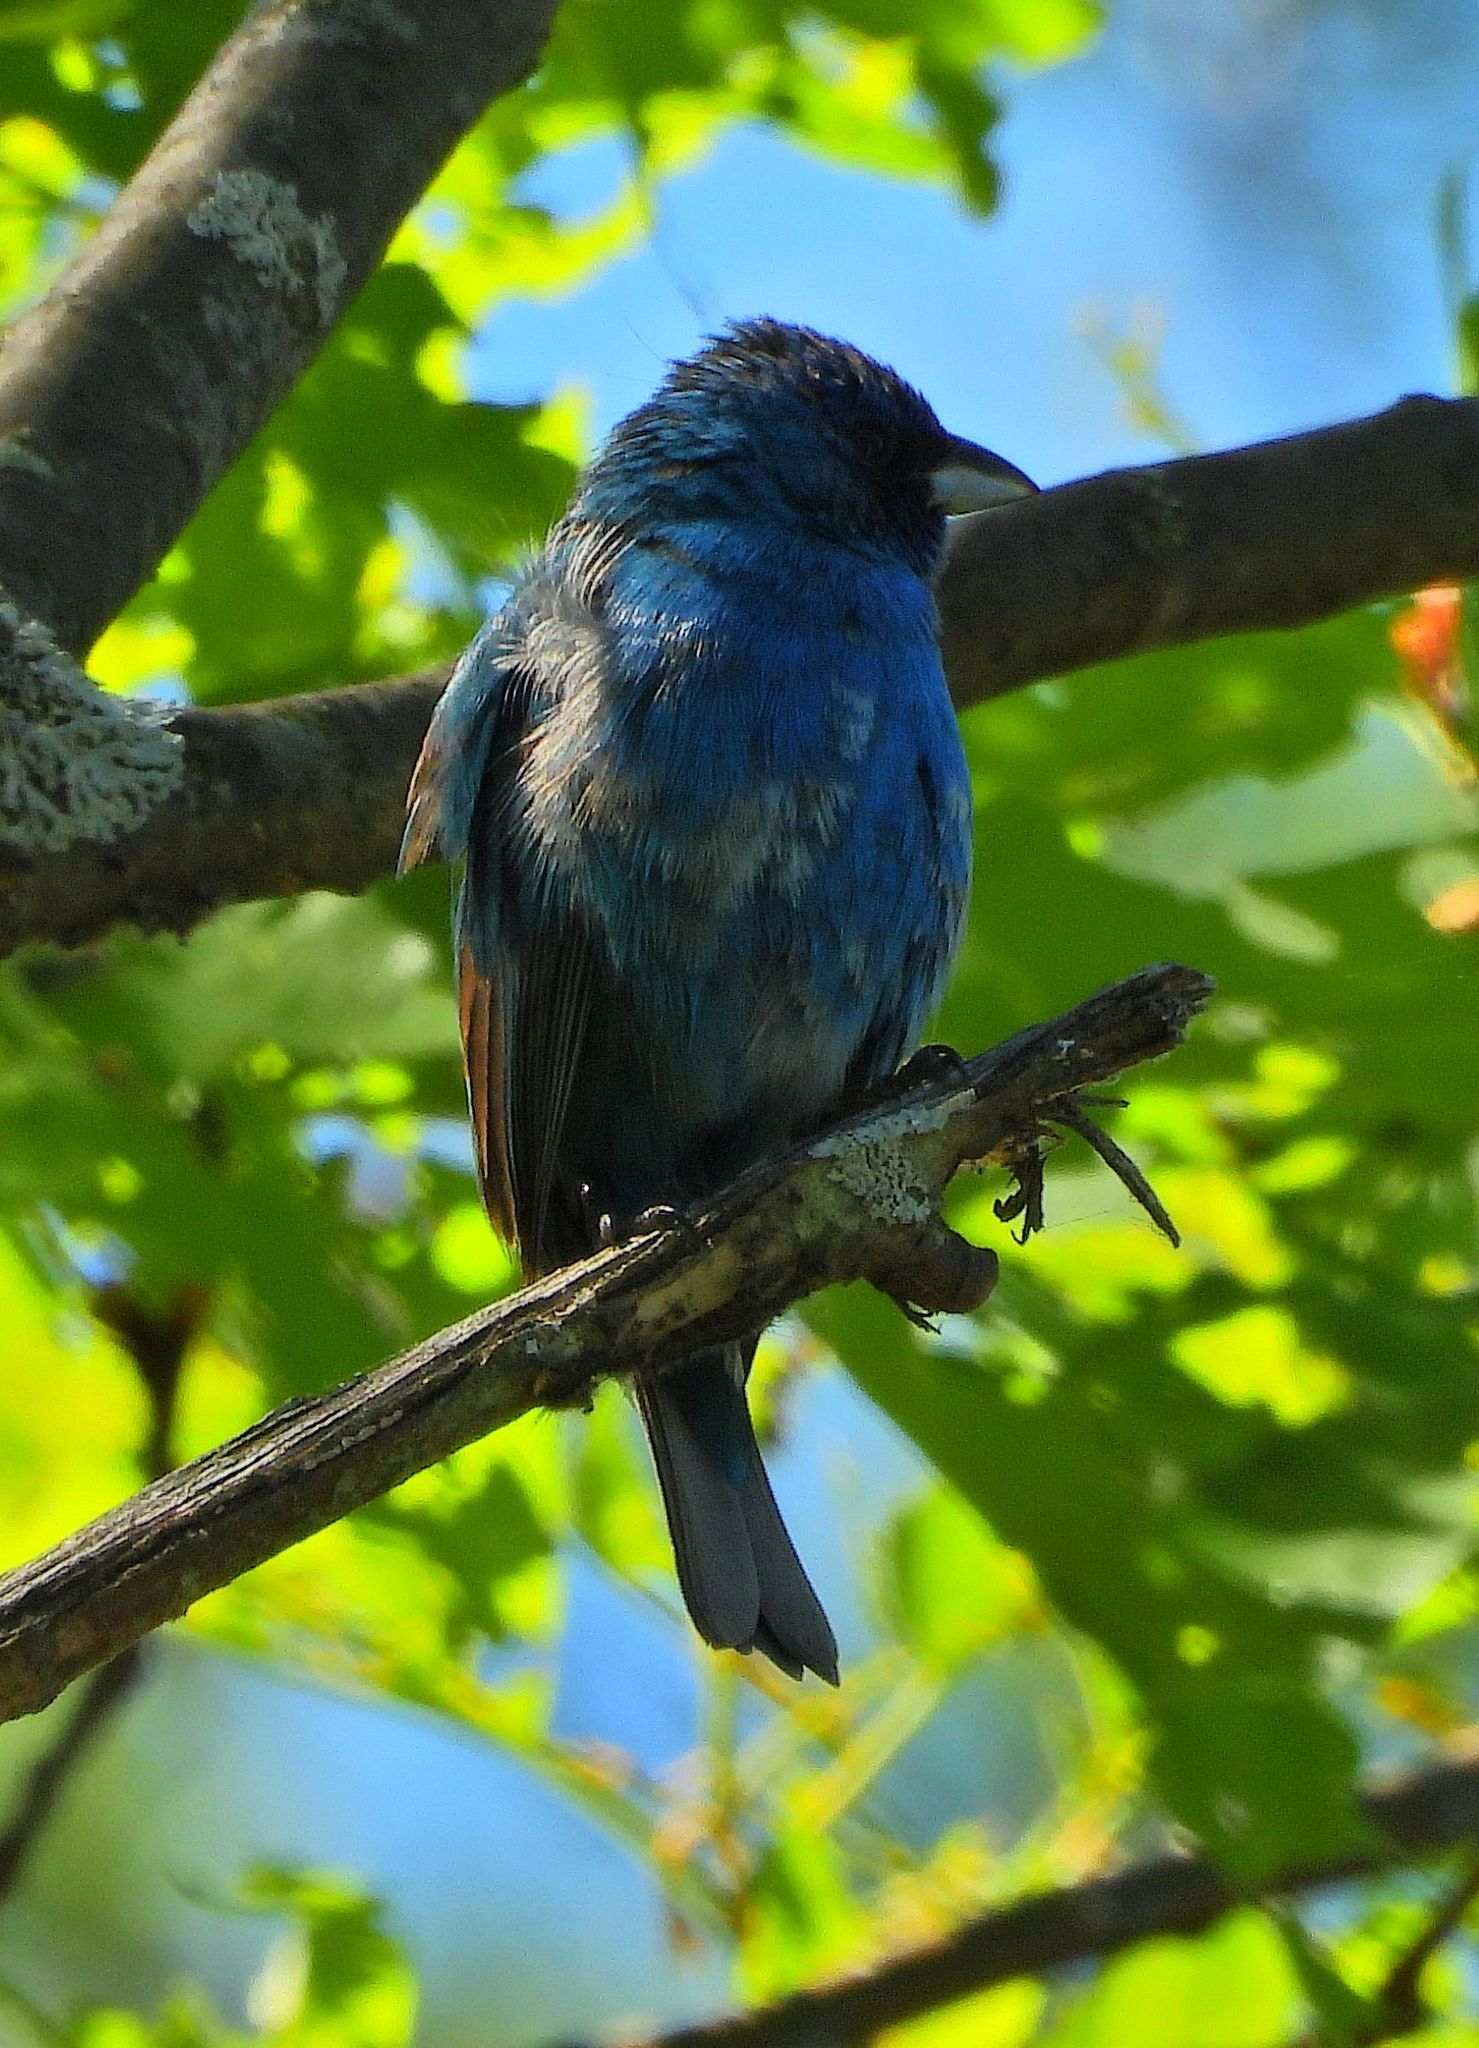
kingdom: Animalia
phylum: Chordata
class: Aves
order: Passeriformes
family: Cardinalidae
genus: Passerina
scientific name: Passerina cyanea
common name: Indigo bunting
